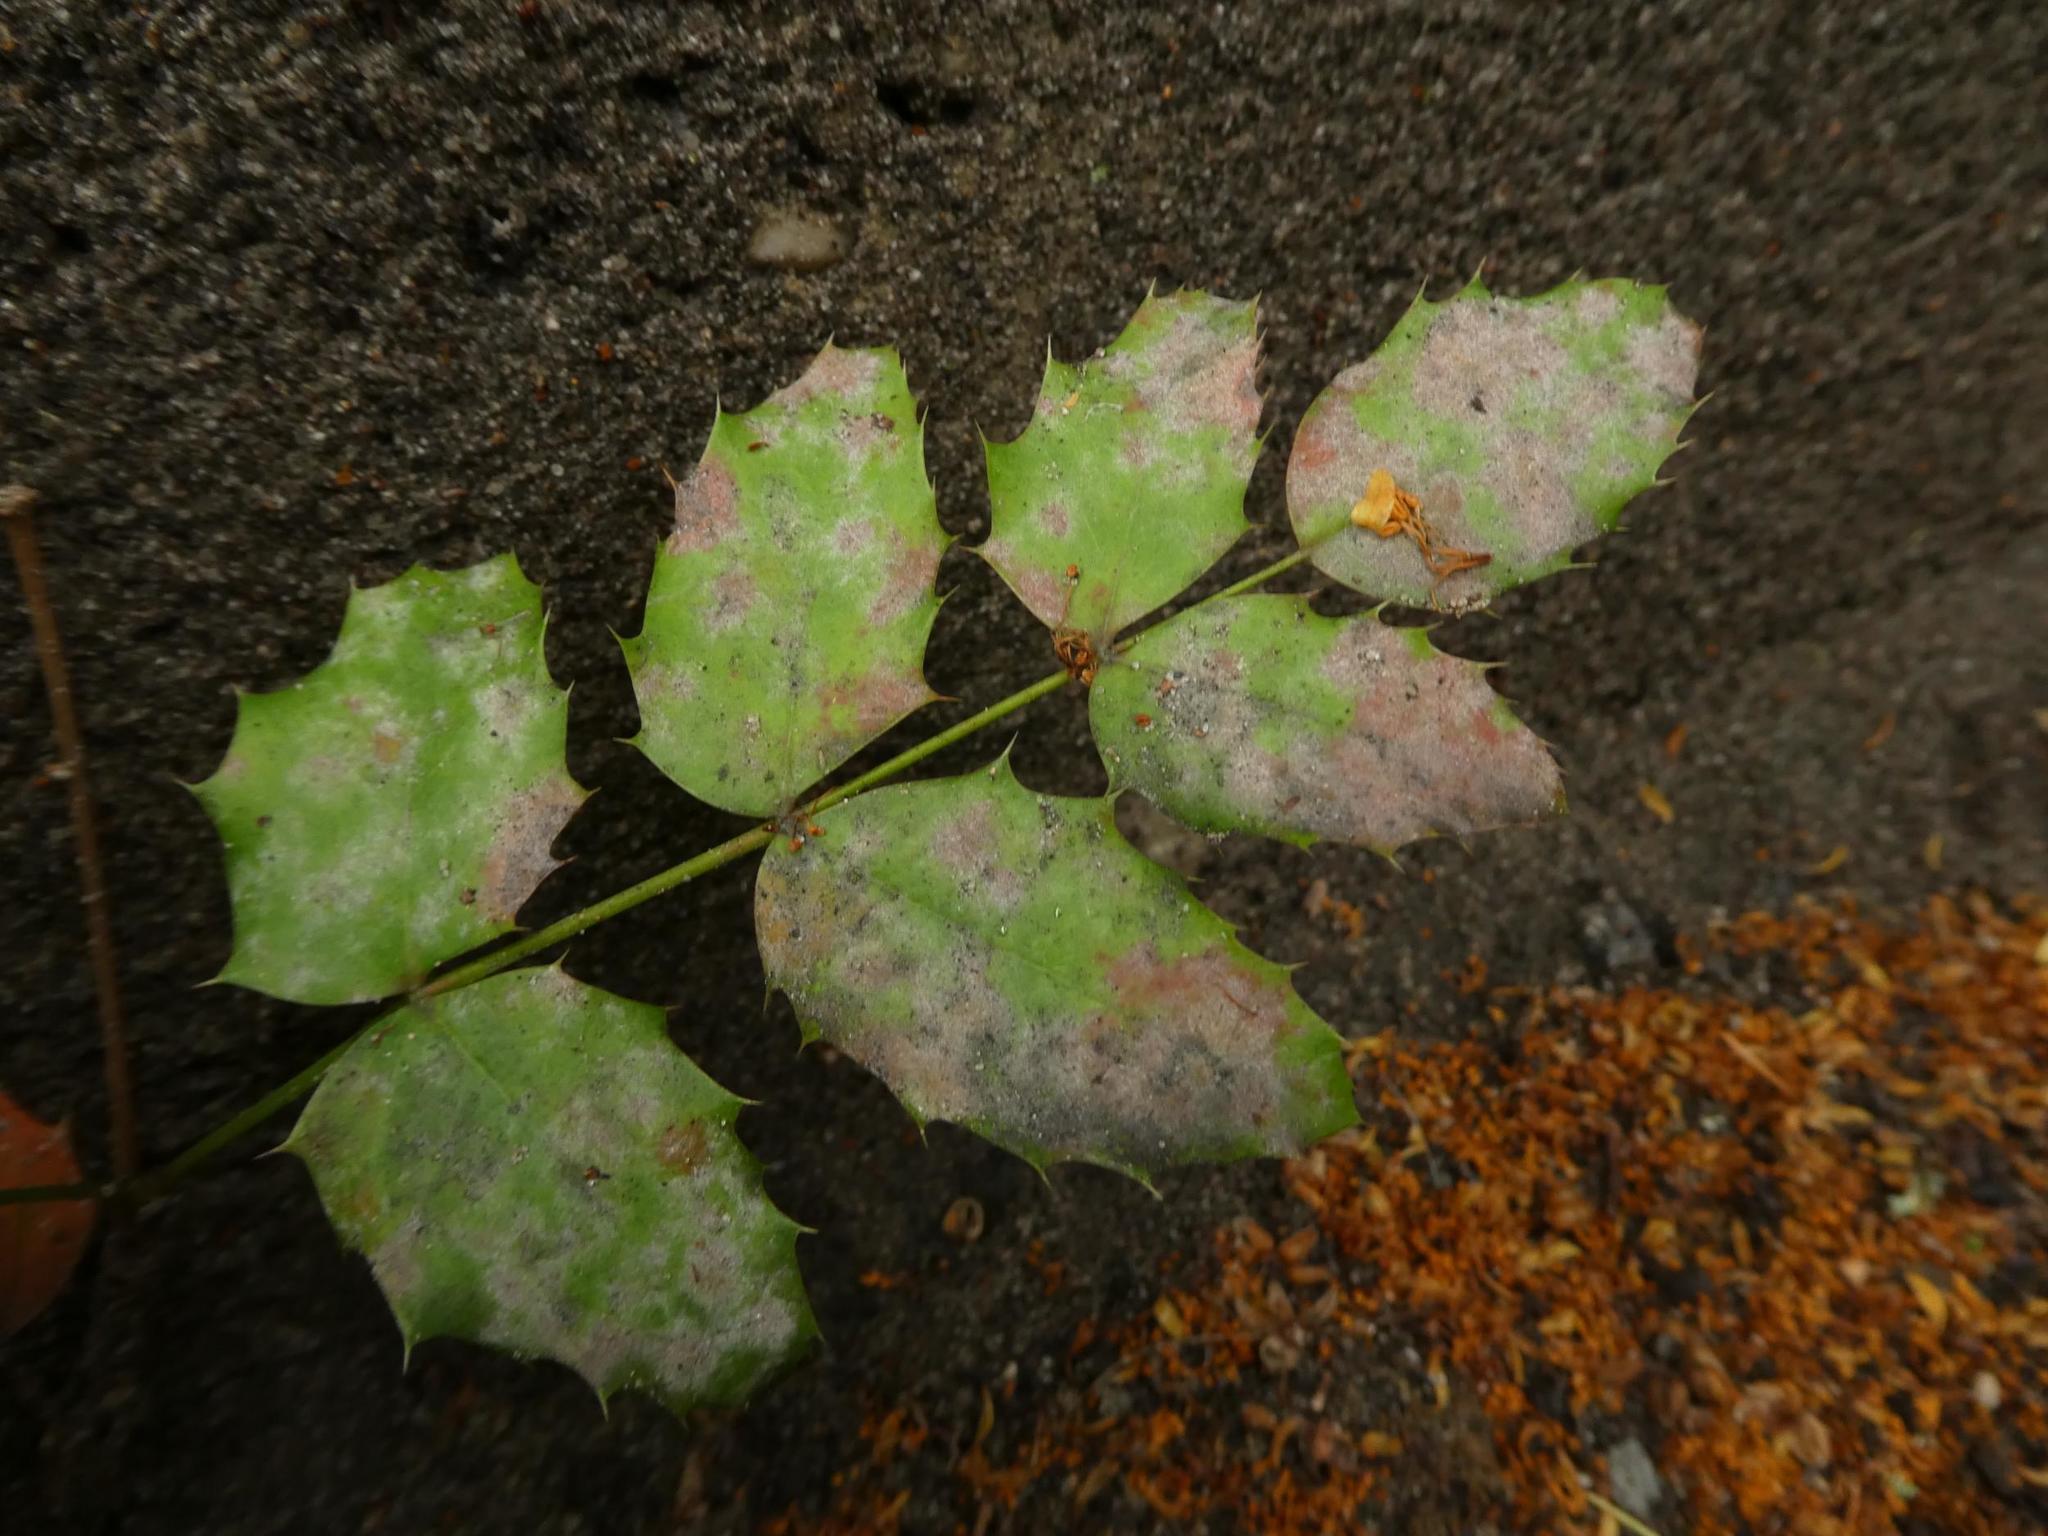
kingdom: Plantae
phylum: Tracheophyta
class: Magnoliopsida
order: Ranunculales
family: Berberidaceae
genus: Mahonia
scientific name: Mahonia aquifolium
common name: Oregon-grape
